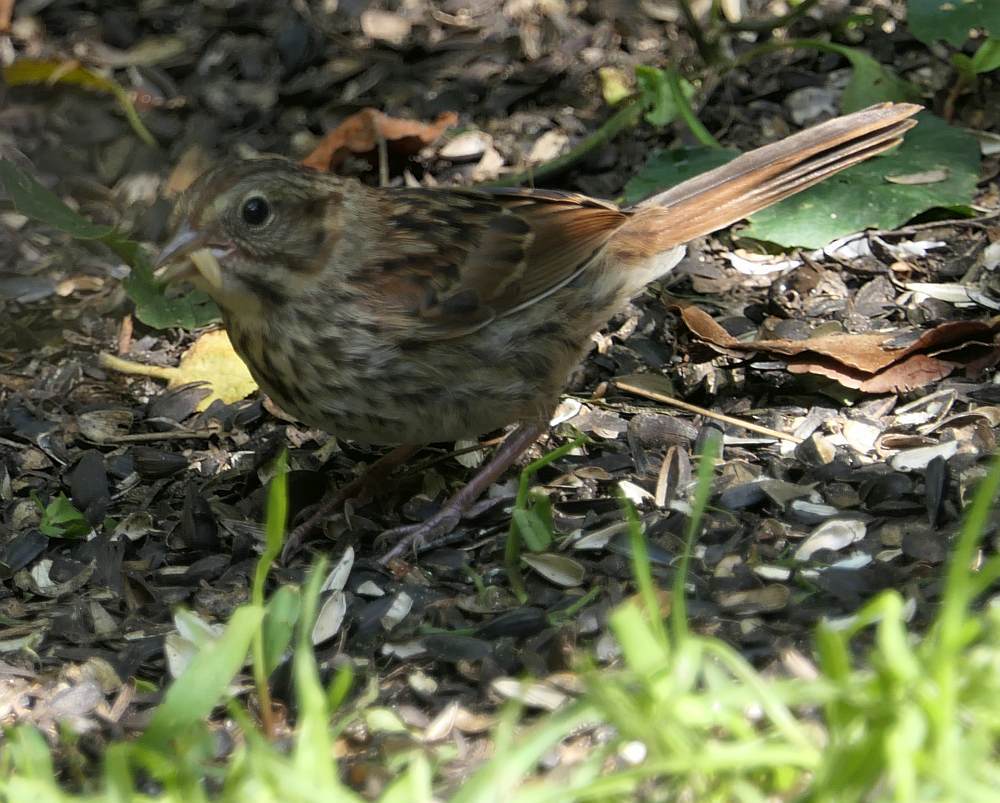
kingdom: Animalia
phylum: Chordata
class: Aves
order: Passeriformes
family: Passerellidae
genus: Melospiza
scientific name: Melospiza melodia
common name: Song sparrow
